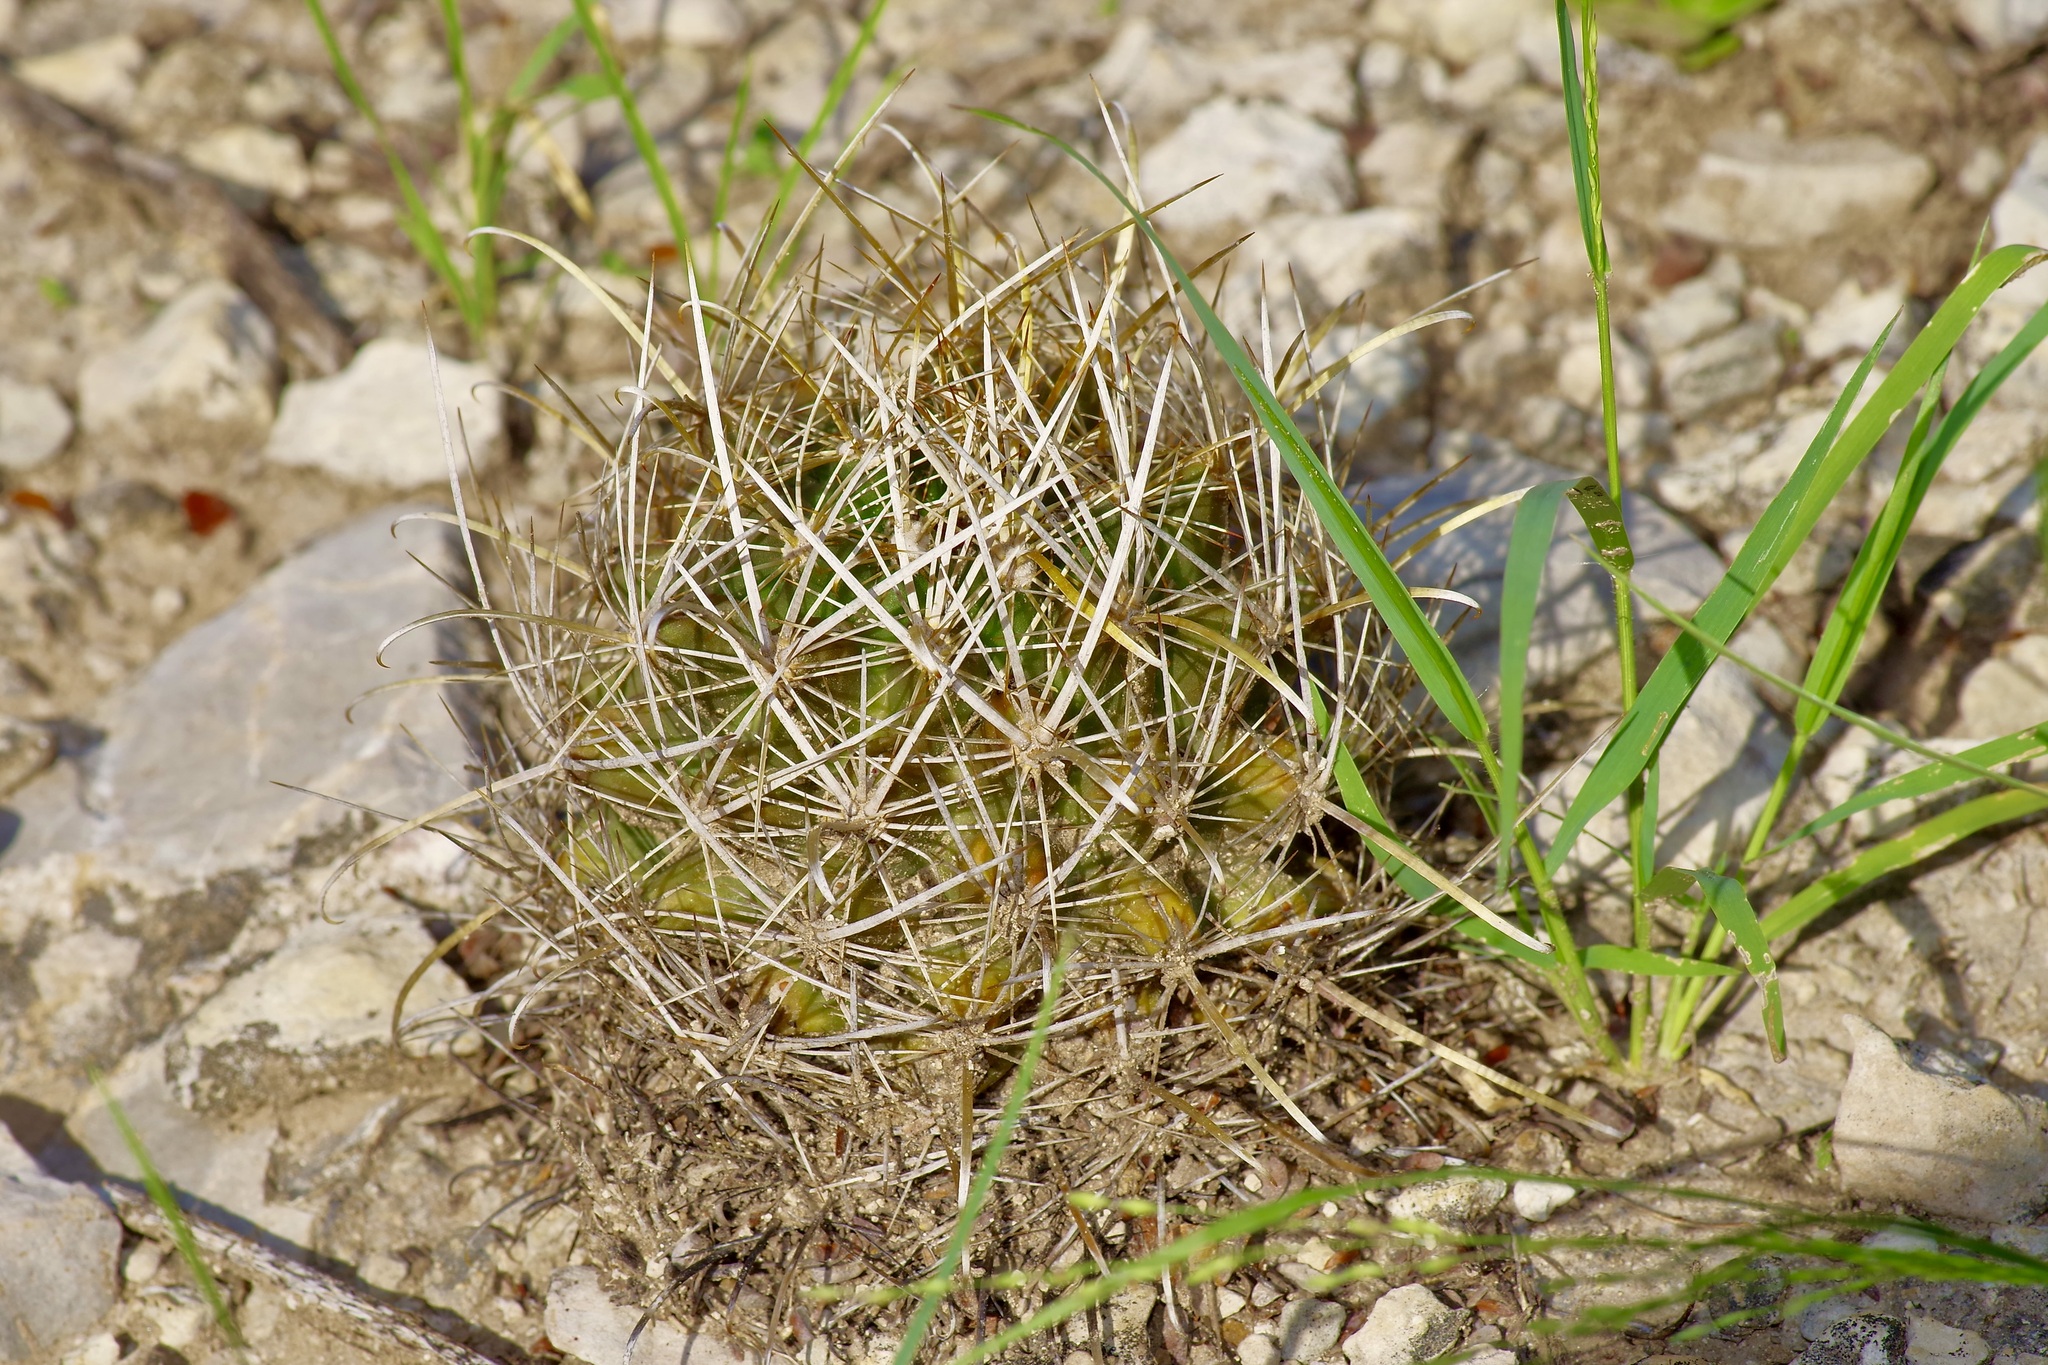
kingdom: Plantae
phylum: Tracheophyta
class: Magnoliopsida
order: Caryophyllales
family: Cactaceae
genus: Sclerocactus
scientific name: Sclerocactus brevihamatus
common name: Engelmann's fishhook cactus
